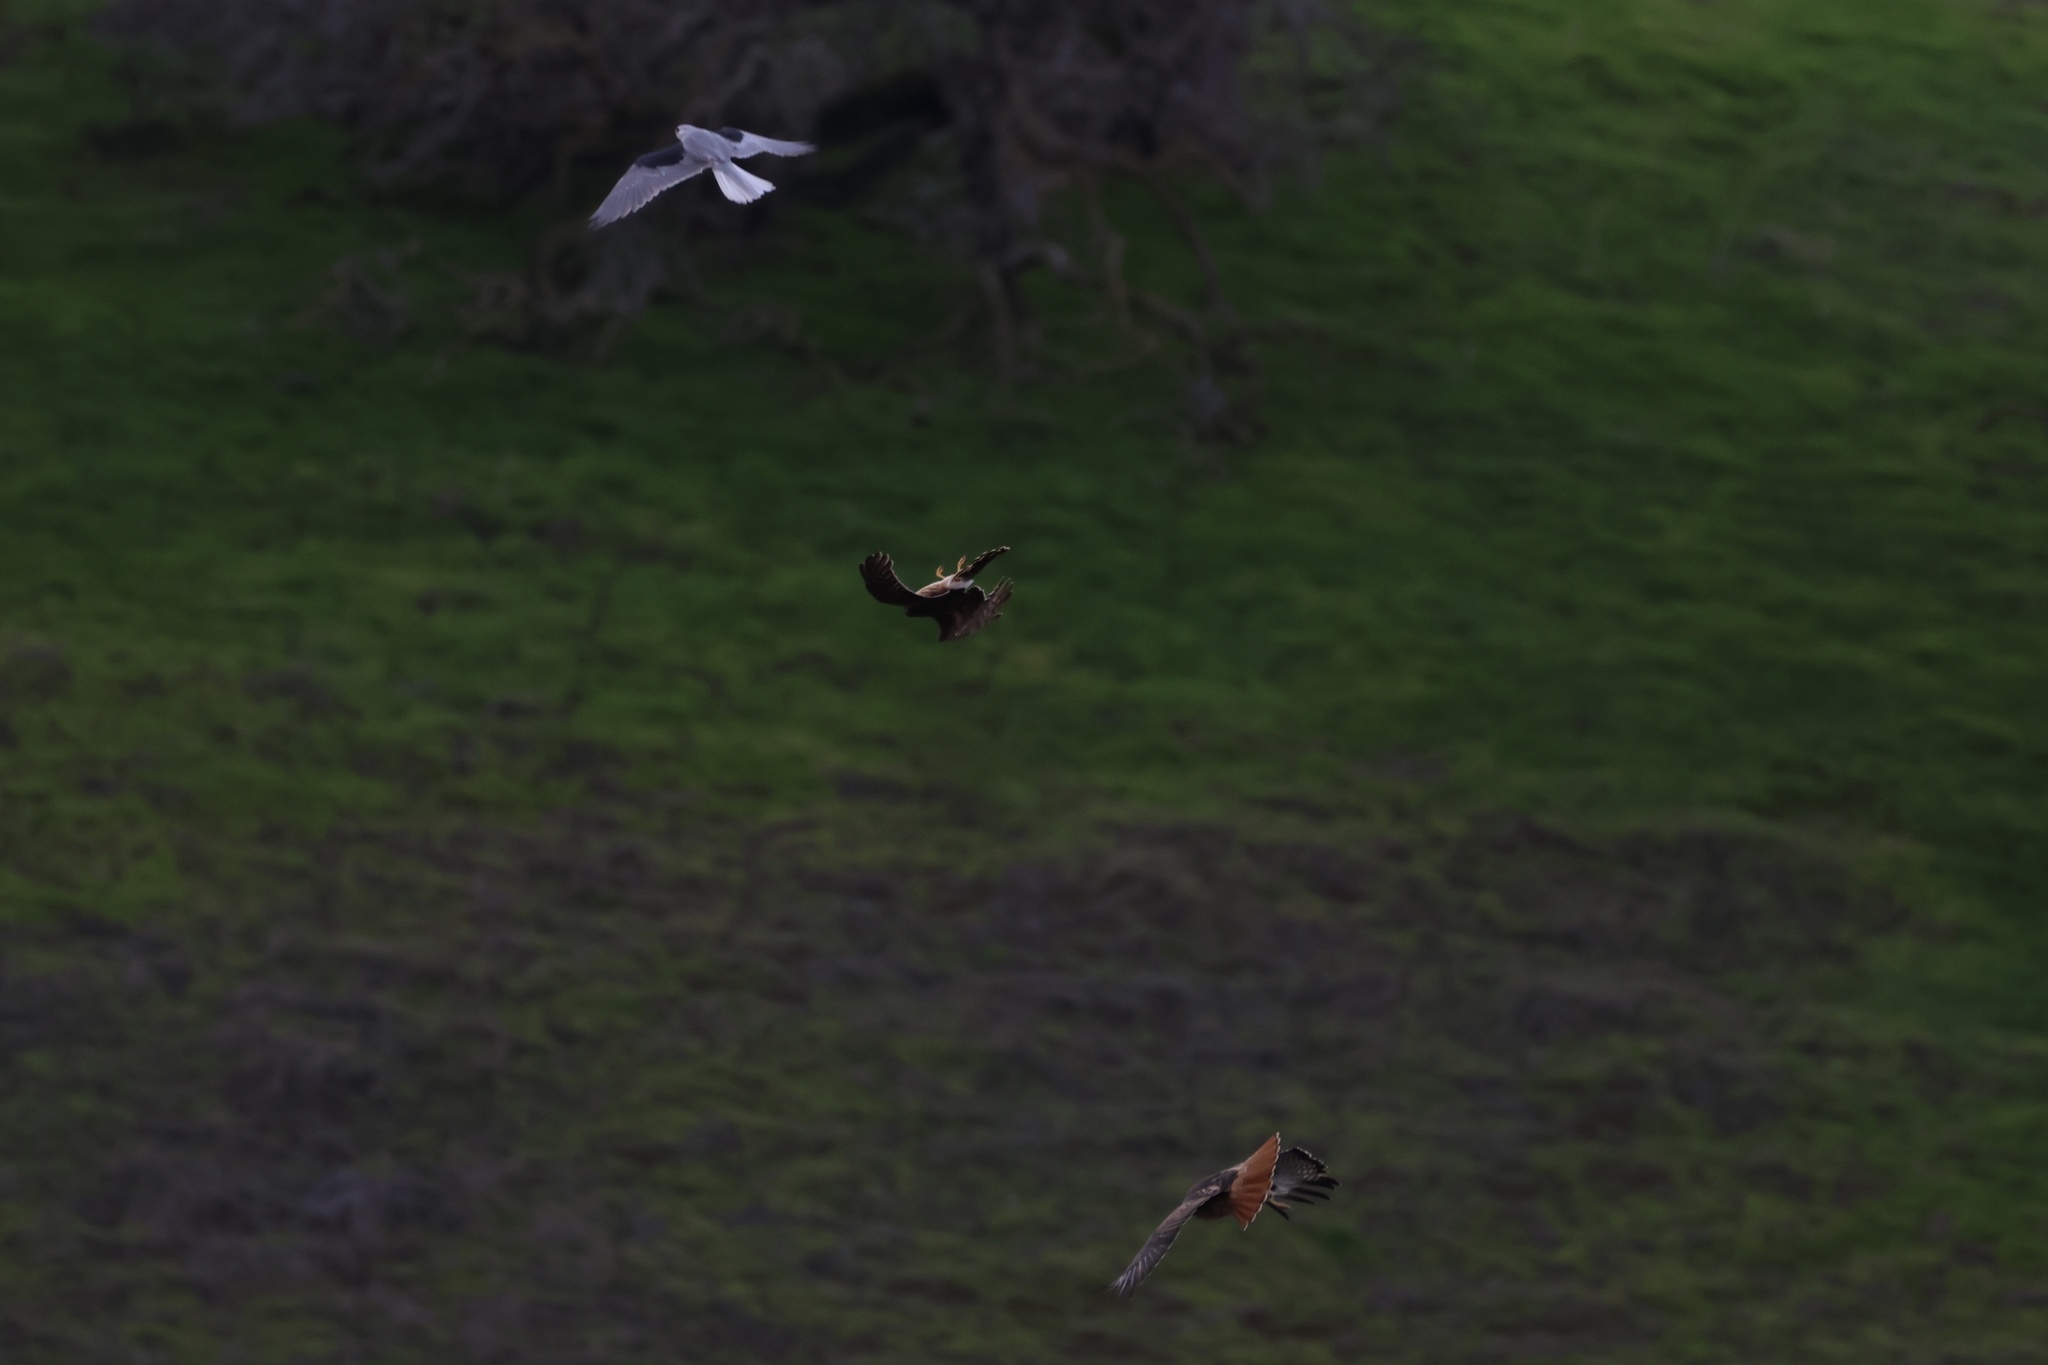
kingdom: Animalia
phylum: Chordata
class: Aves
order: Accipitriformes
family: Accipitridae
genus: Buteo
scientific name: Buteo jamaicensis
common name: Red-tailed hawk
